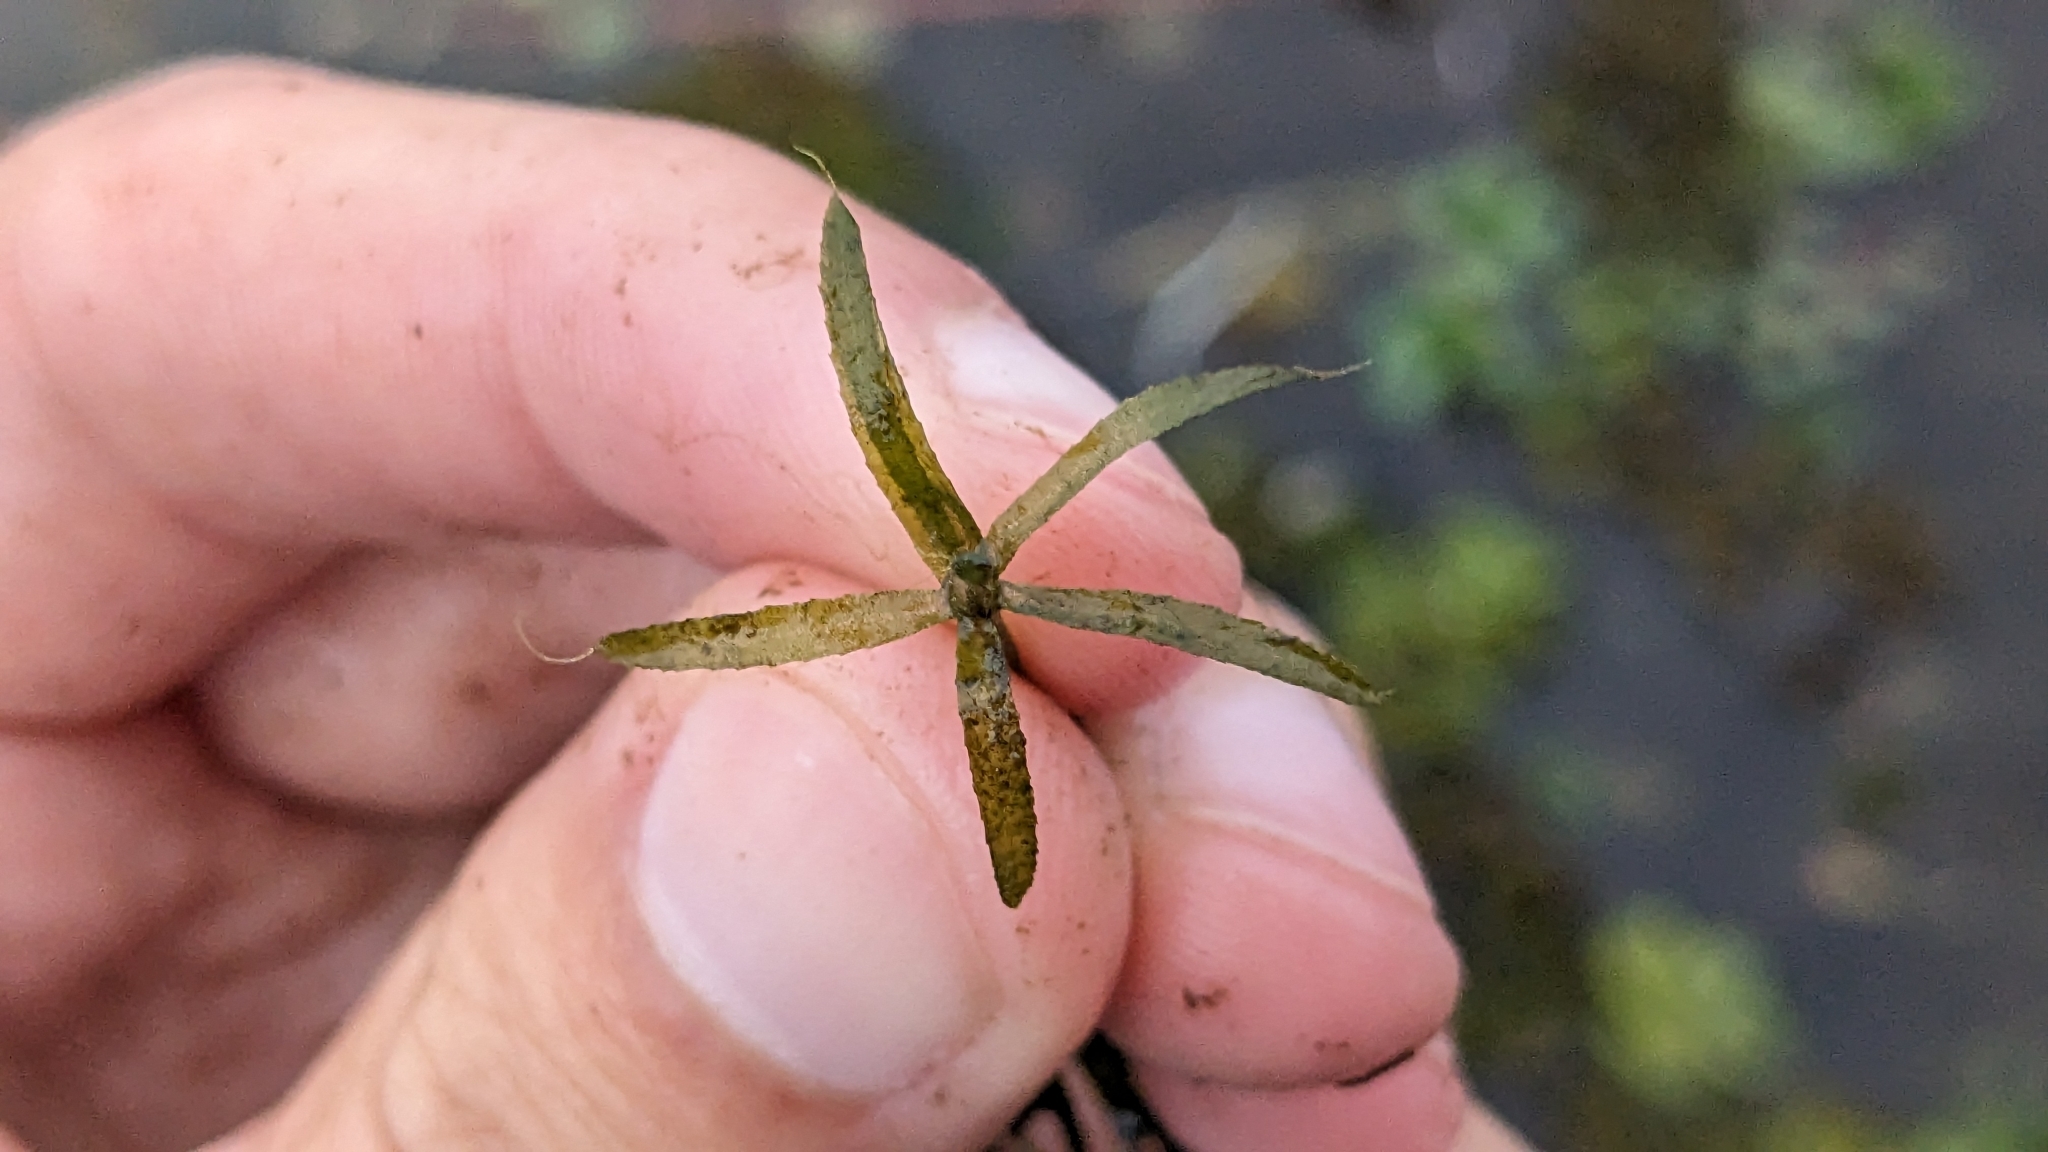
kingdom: Plantae
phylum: Tracheophyta
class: Liliopsida
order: Alismatales
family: Hydrocharitaceae
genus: Hydrilla
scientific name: Hydrilla verticillata
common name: Florida-elodea
